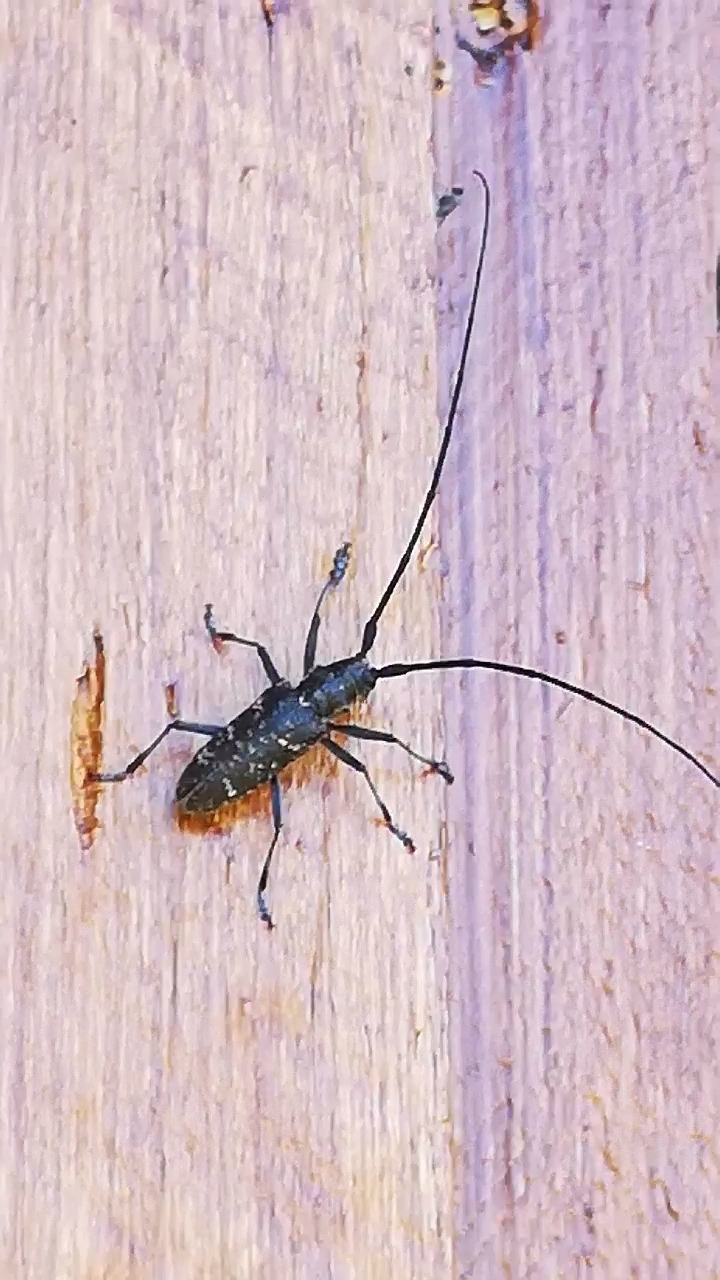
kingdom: Animalia
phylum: Arthropoda
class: Insecta
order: Coleoptera
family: Cerambycidae
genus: Monochamus
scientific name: Monochamus sutor
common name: Pine sawyer
